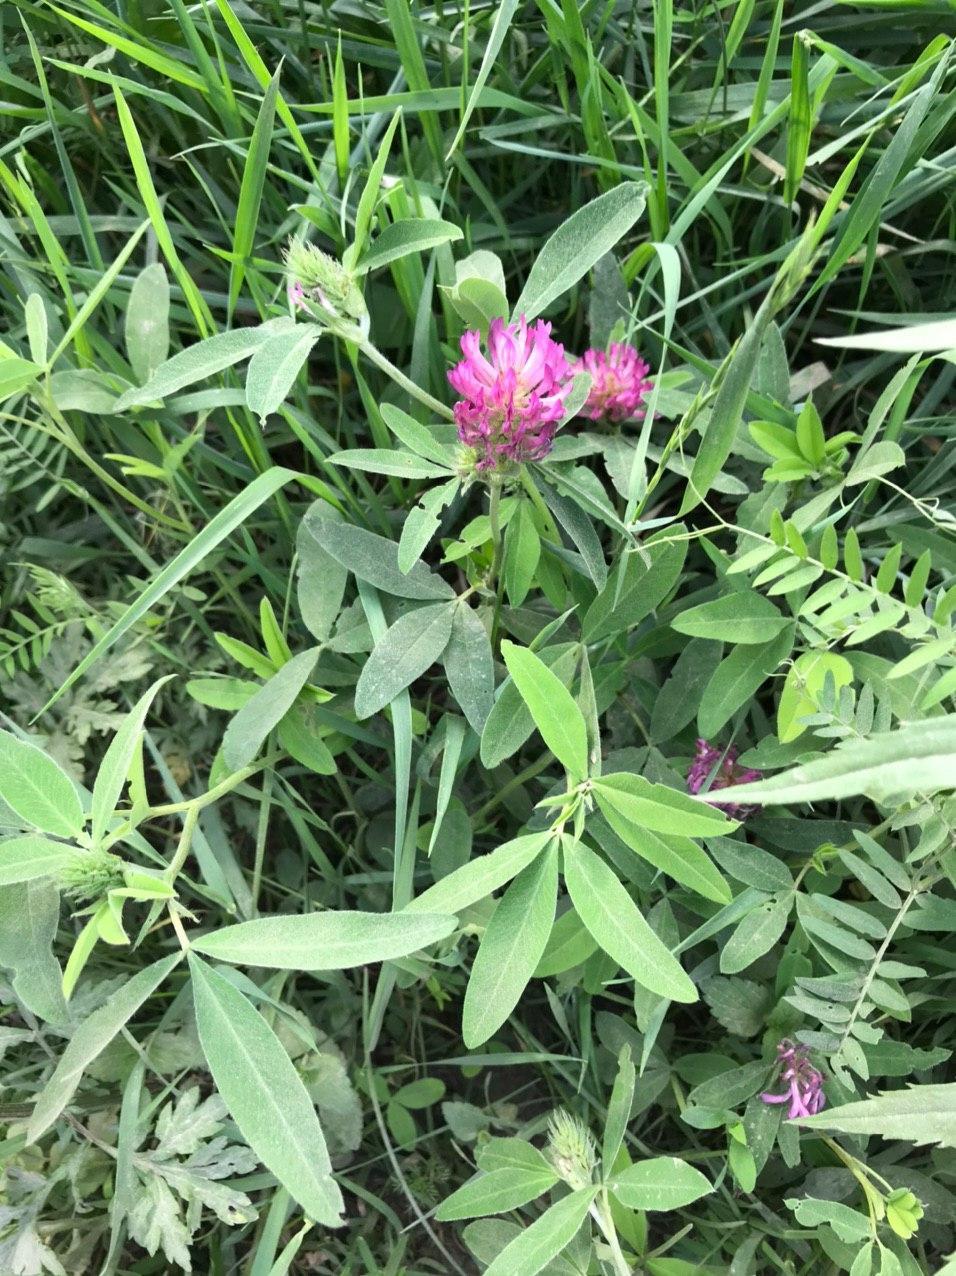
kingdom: Plantae
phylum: Tracheophyta
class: Magnoliopsida
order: Fabales
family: Fabaceae
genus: Trifolium
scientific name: Trifolium medium
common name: Zigzag clover
